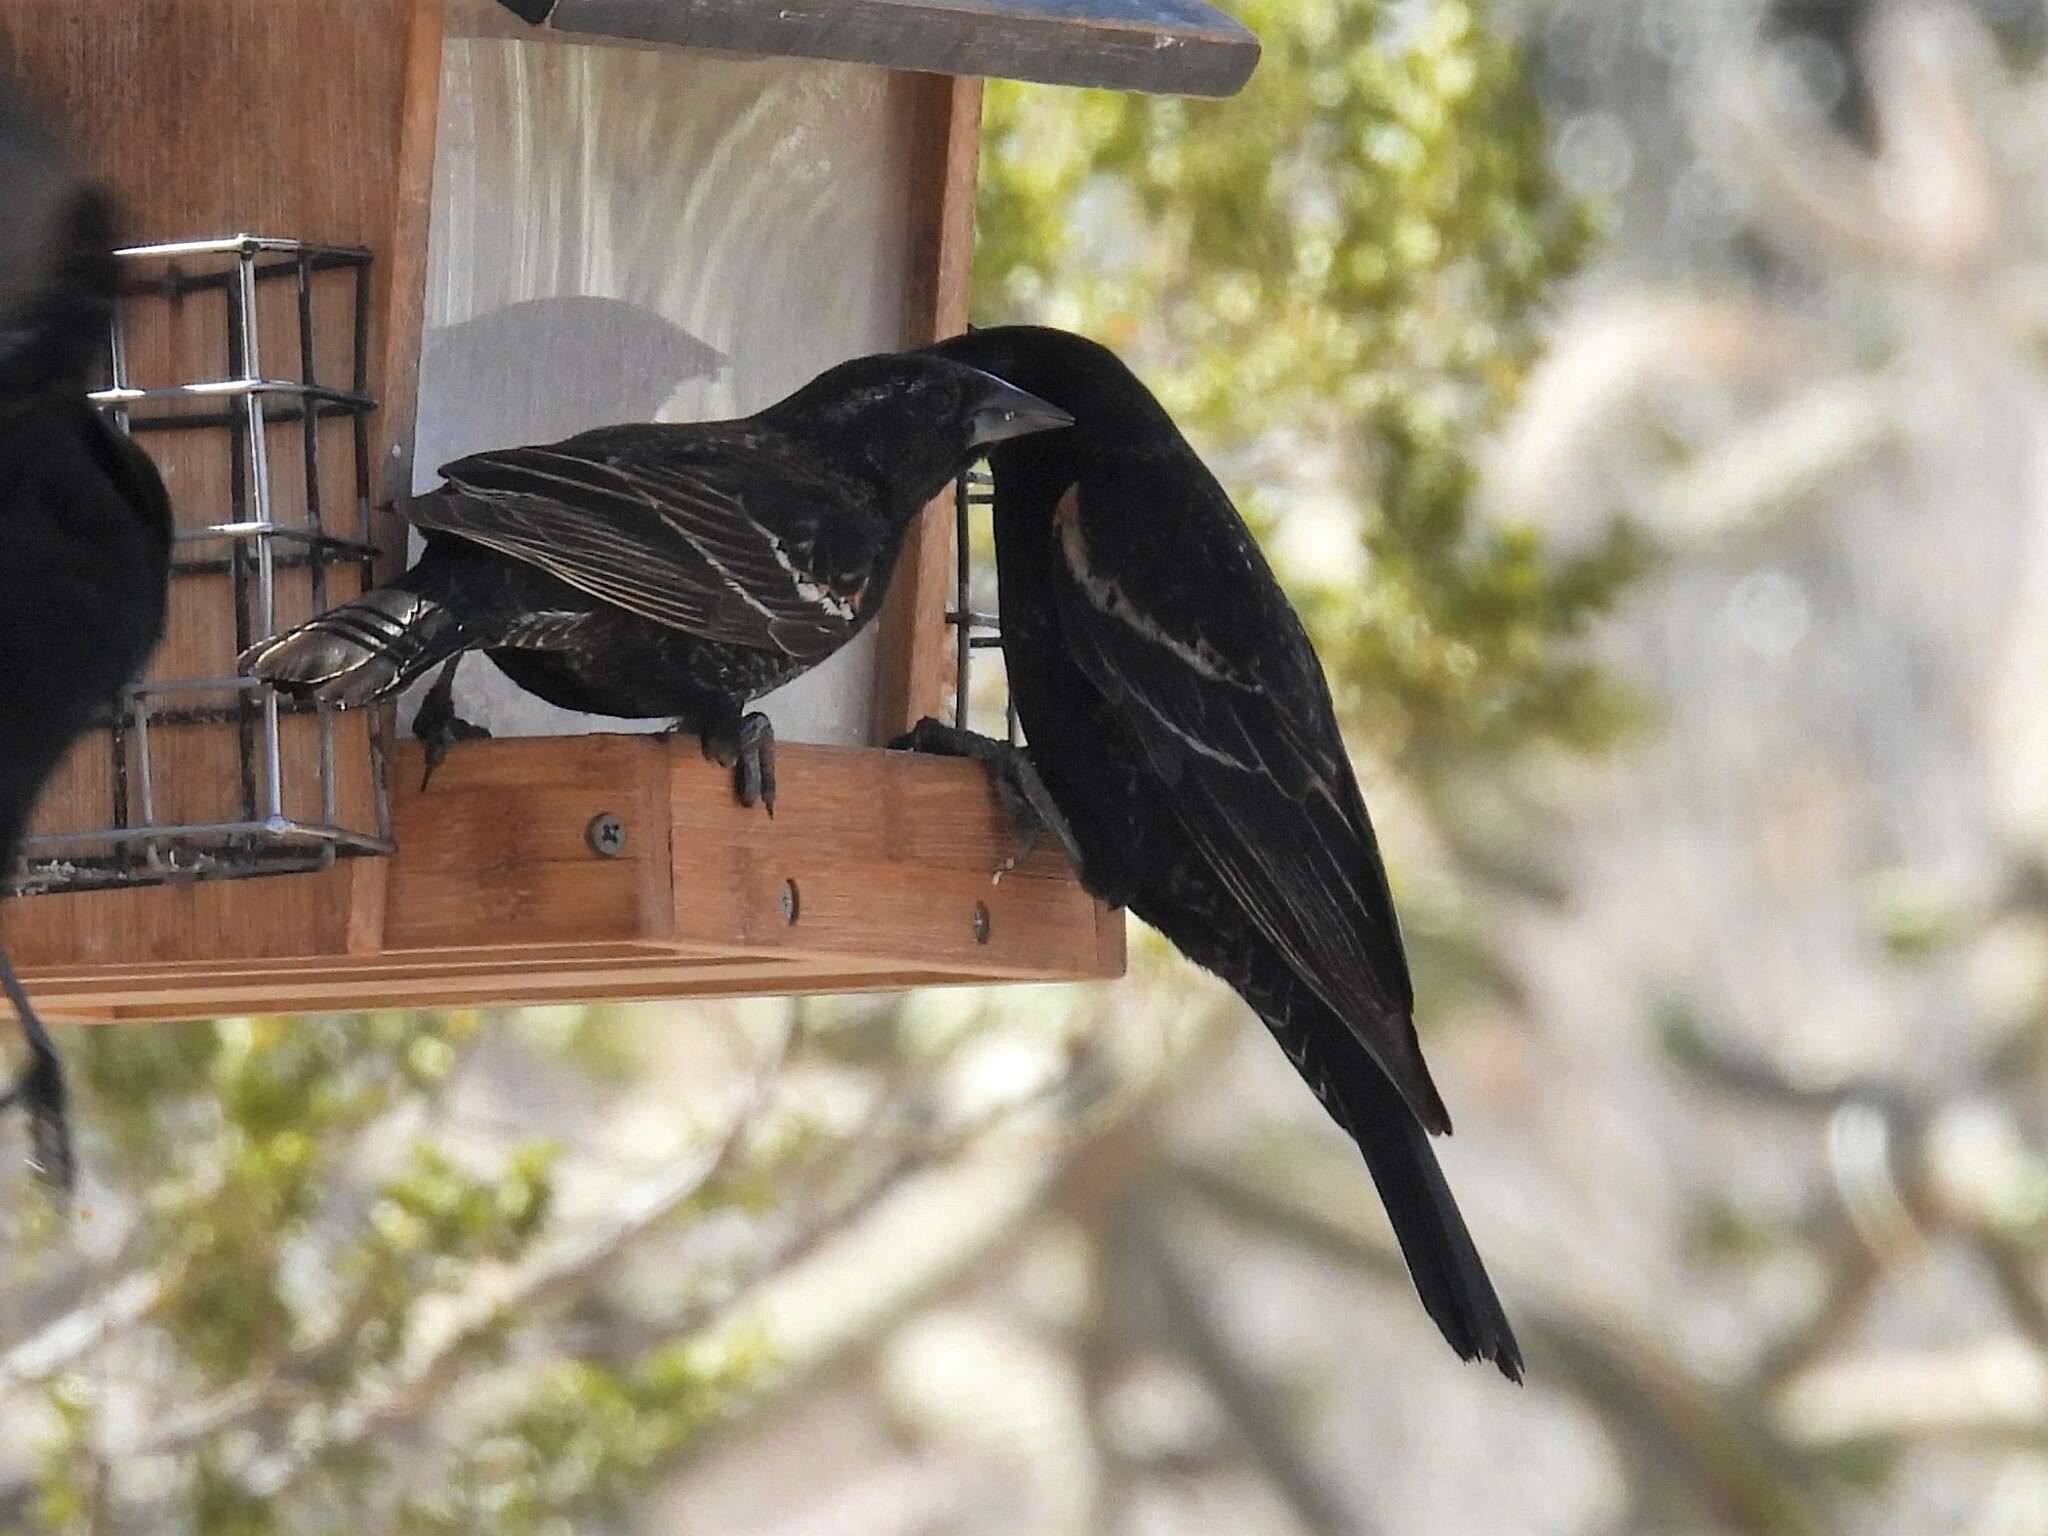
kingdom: Animalia
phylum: Chordata
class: Aves
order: Passeriformes
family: Icteridae
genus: Agelaius
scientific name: Agelaius phoeniceus
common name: Red-winged blackbird
